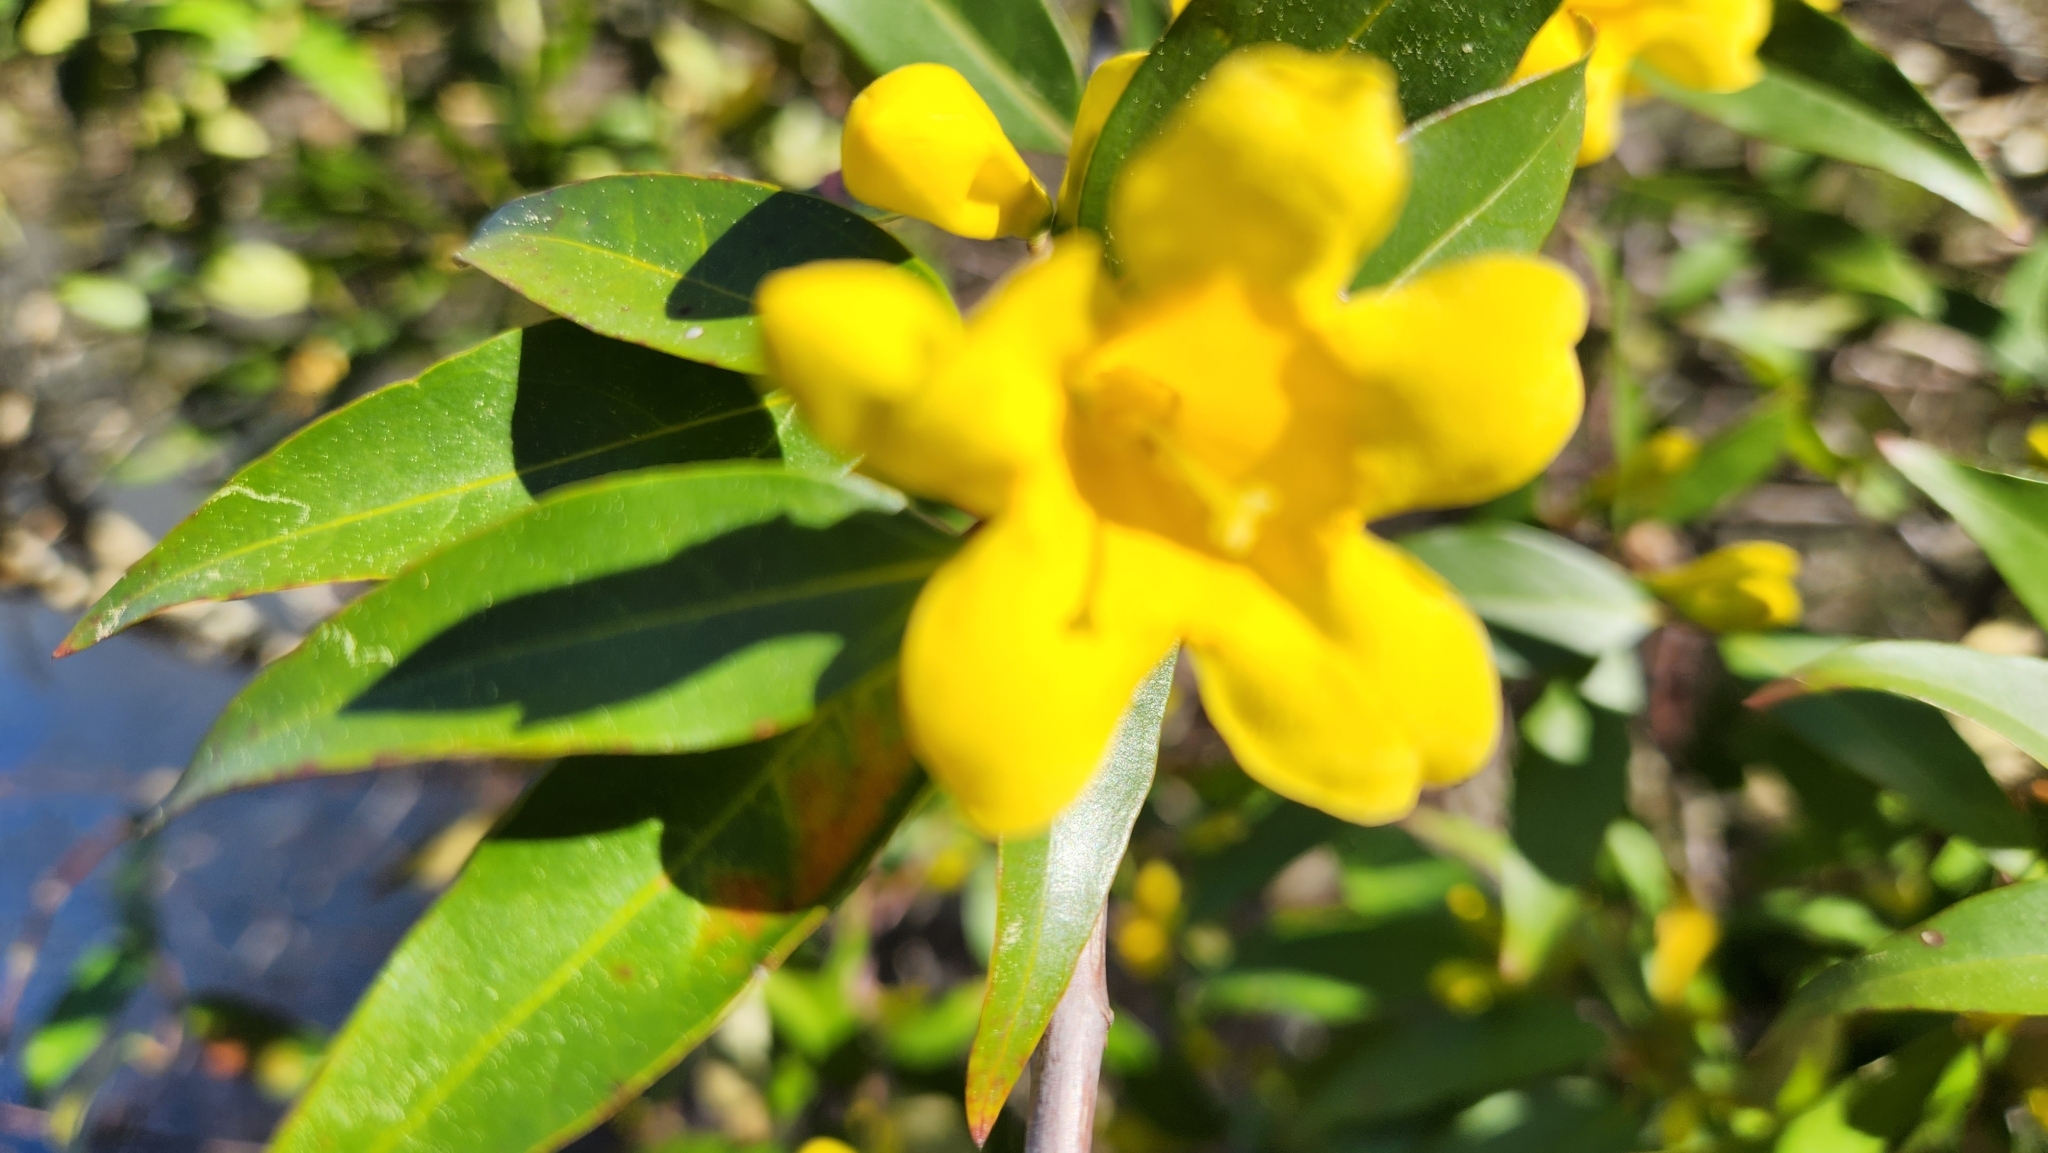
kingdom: Plantae
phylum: Tracheophyta
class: Magnoliopsida
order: Gentianales
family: Gelsemiaceae
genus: Gelsemium
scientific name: Gelsemium sempervirens
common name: Carolina-jasmine
